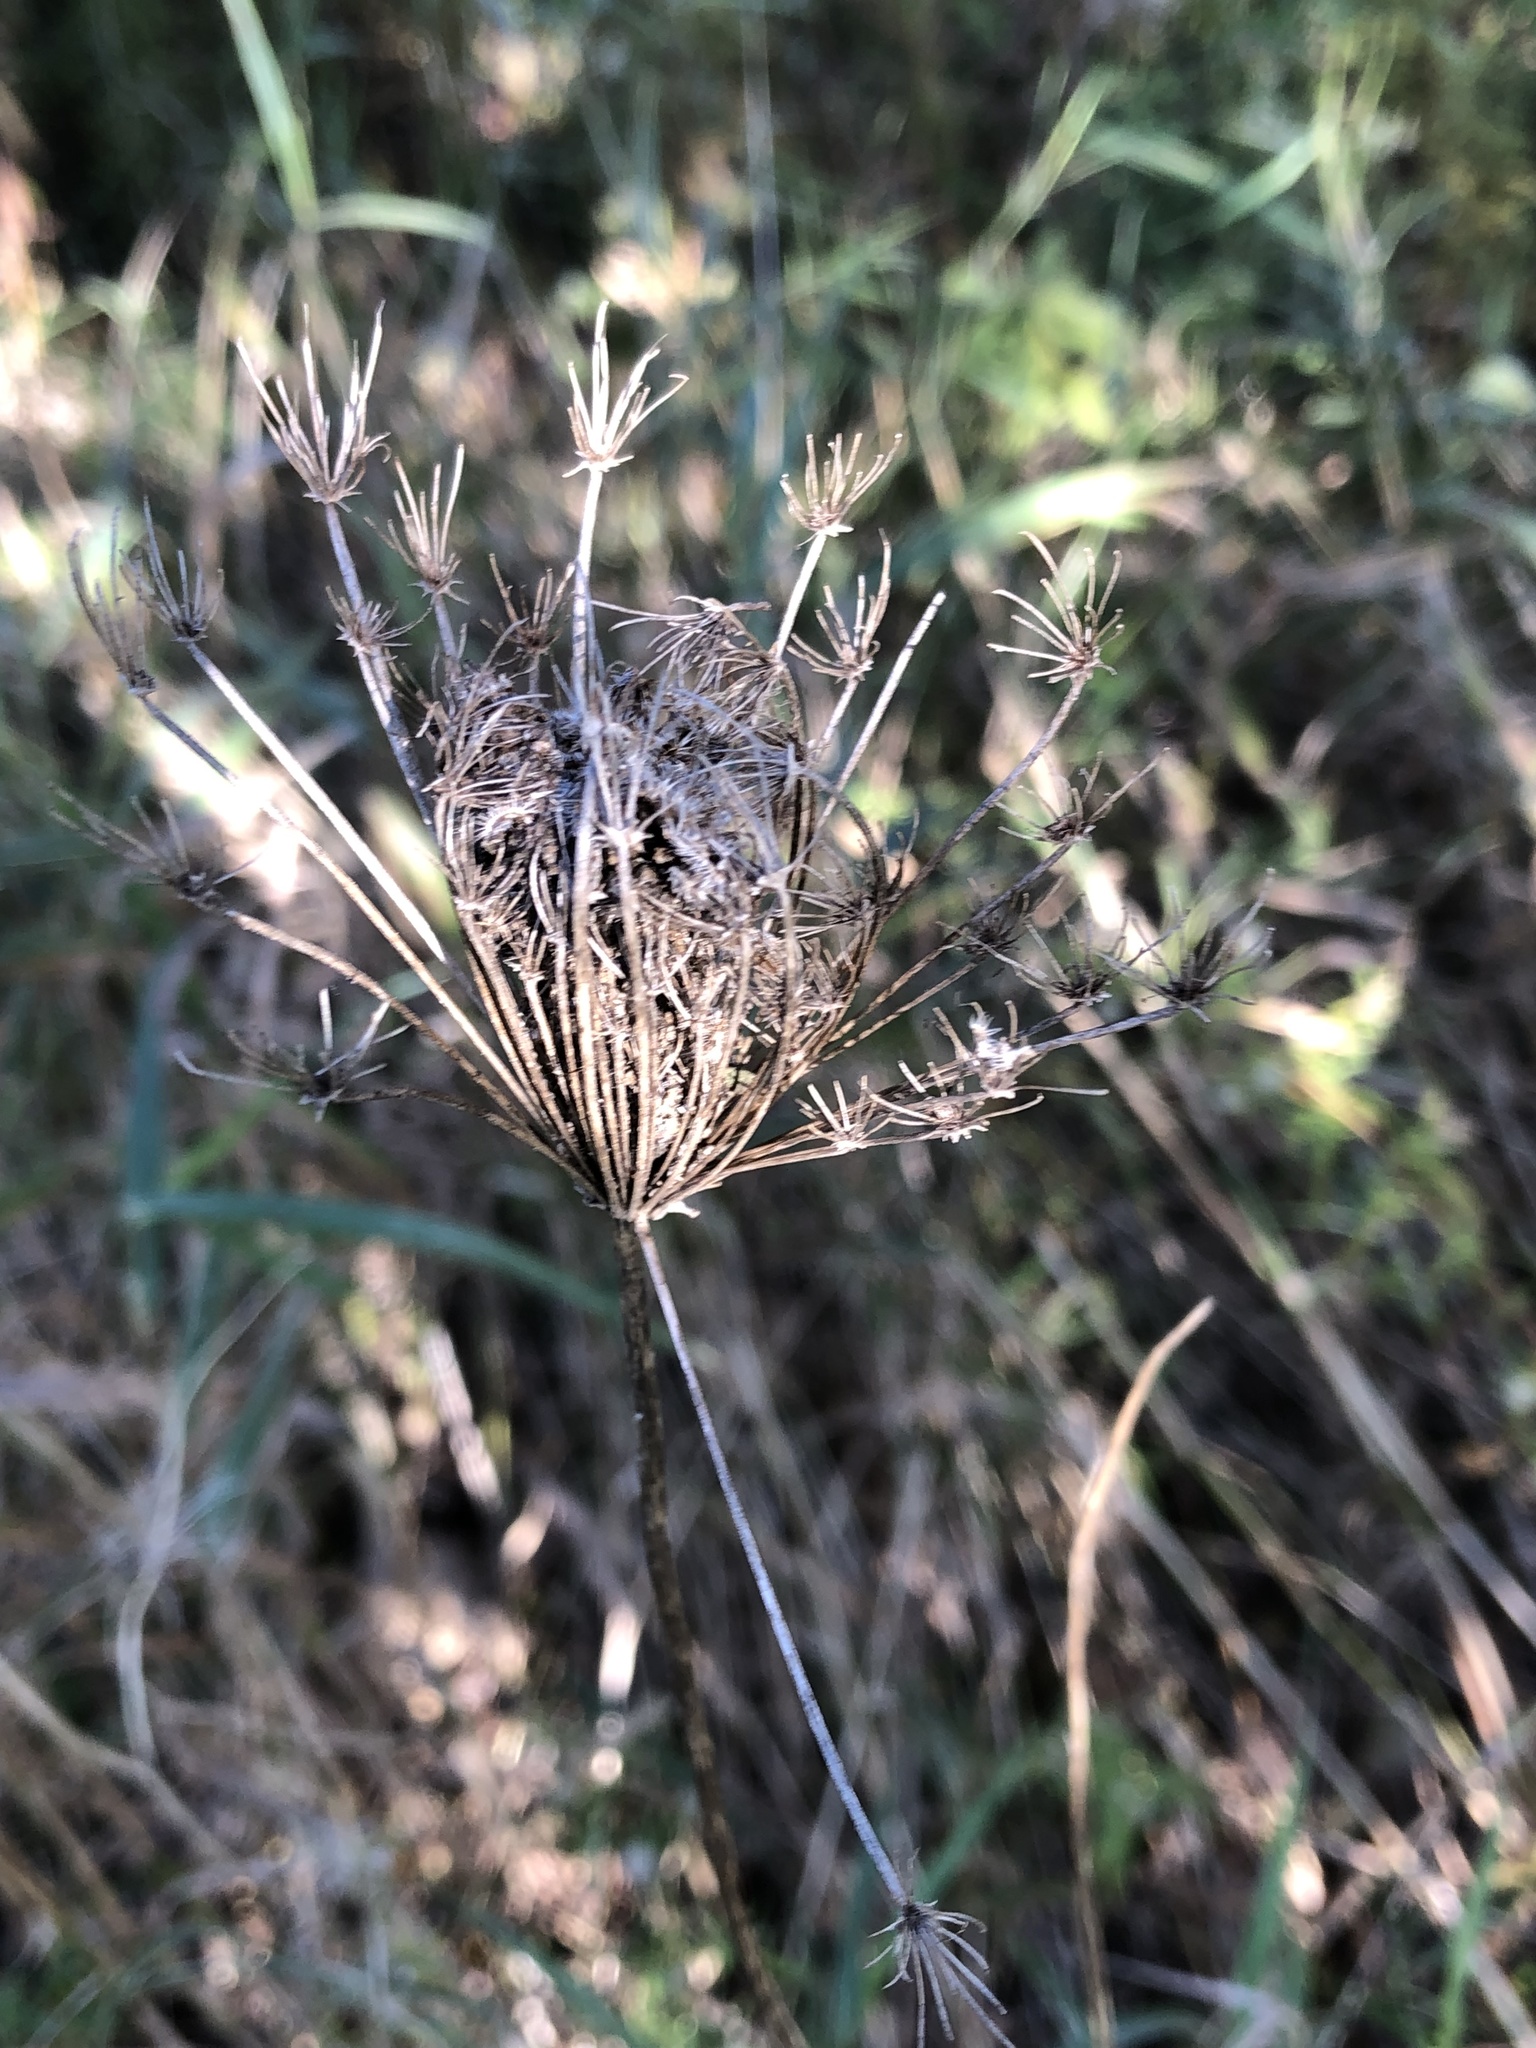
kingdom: Plantae
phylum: Tracheophyta
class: Magnoliopsida
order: Apiales
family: Apiaceae
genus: Daucus
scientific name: Daucus carota
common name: Wild carrot
